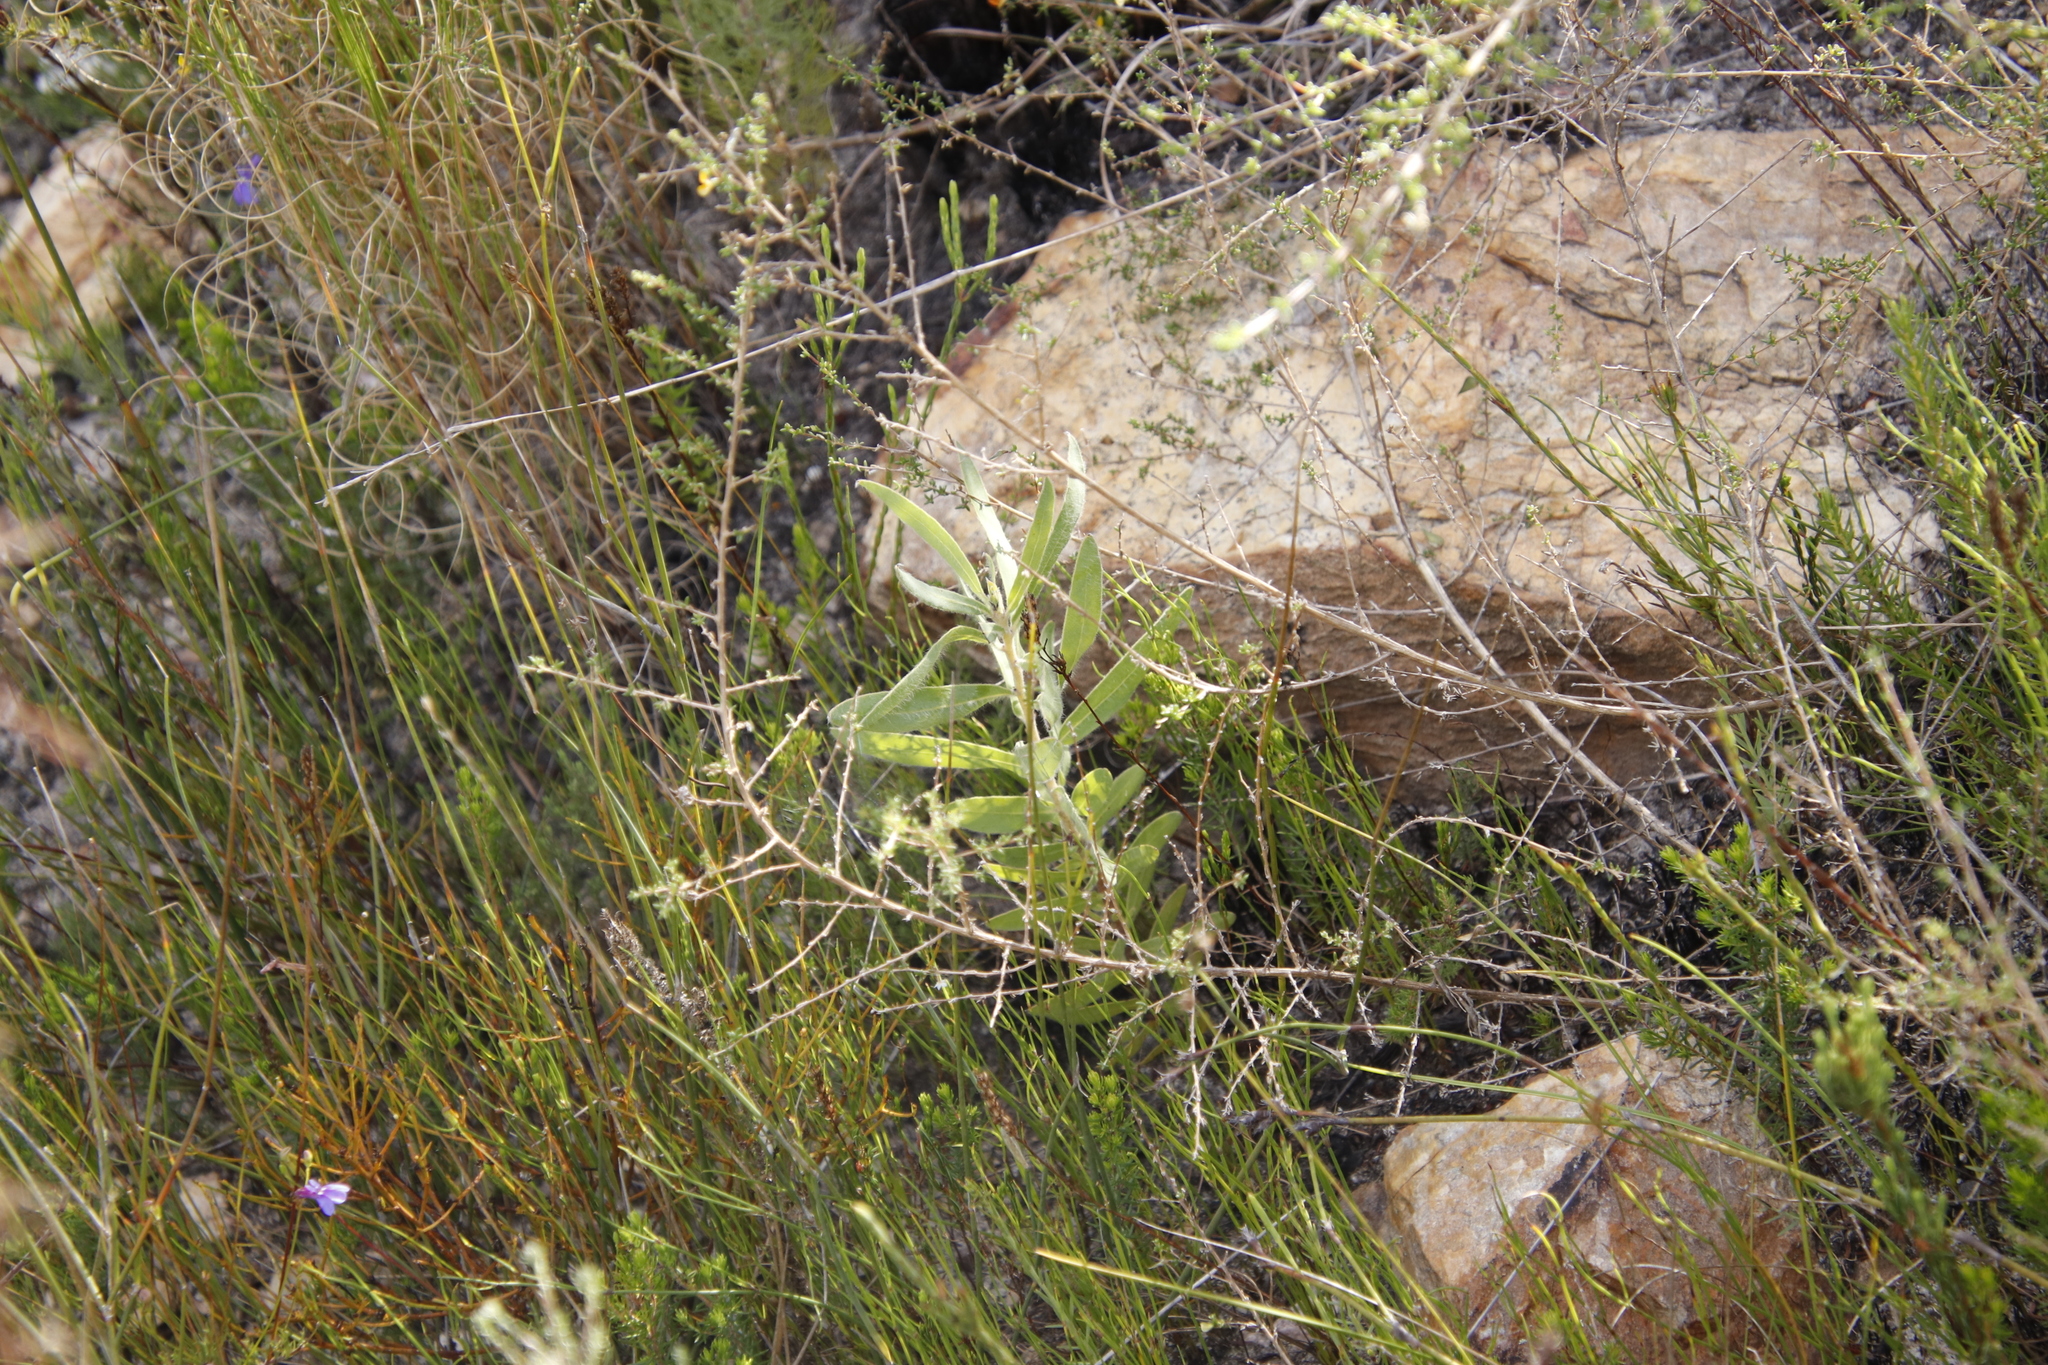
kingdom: Plantae
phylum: Tracheophyta
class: Magnoliopsida
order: Proteales
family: Proteaceae
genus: Protea
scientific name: Protea neriifolia
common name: Blue sugarbush
